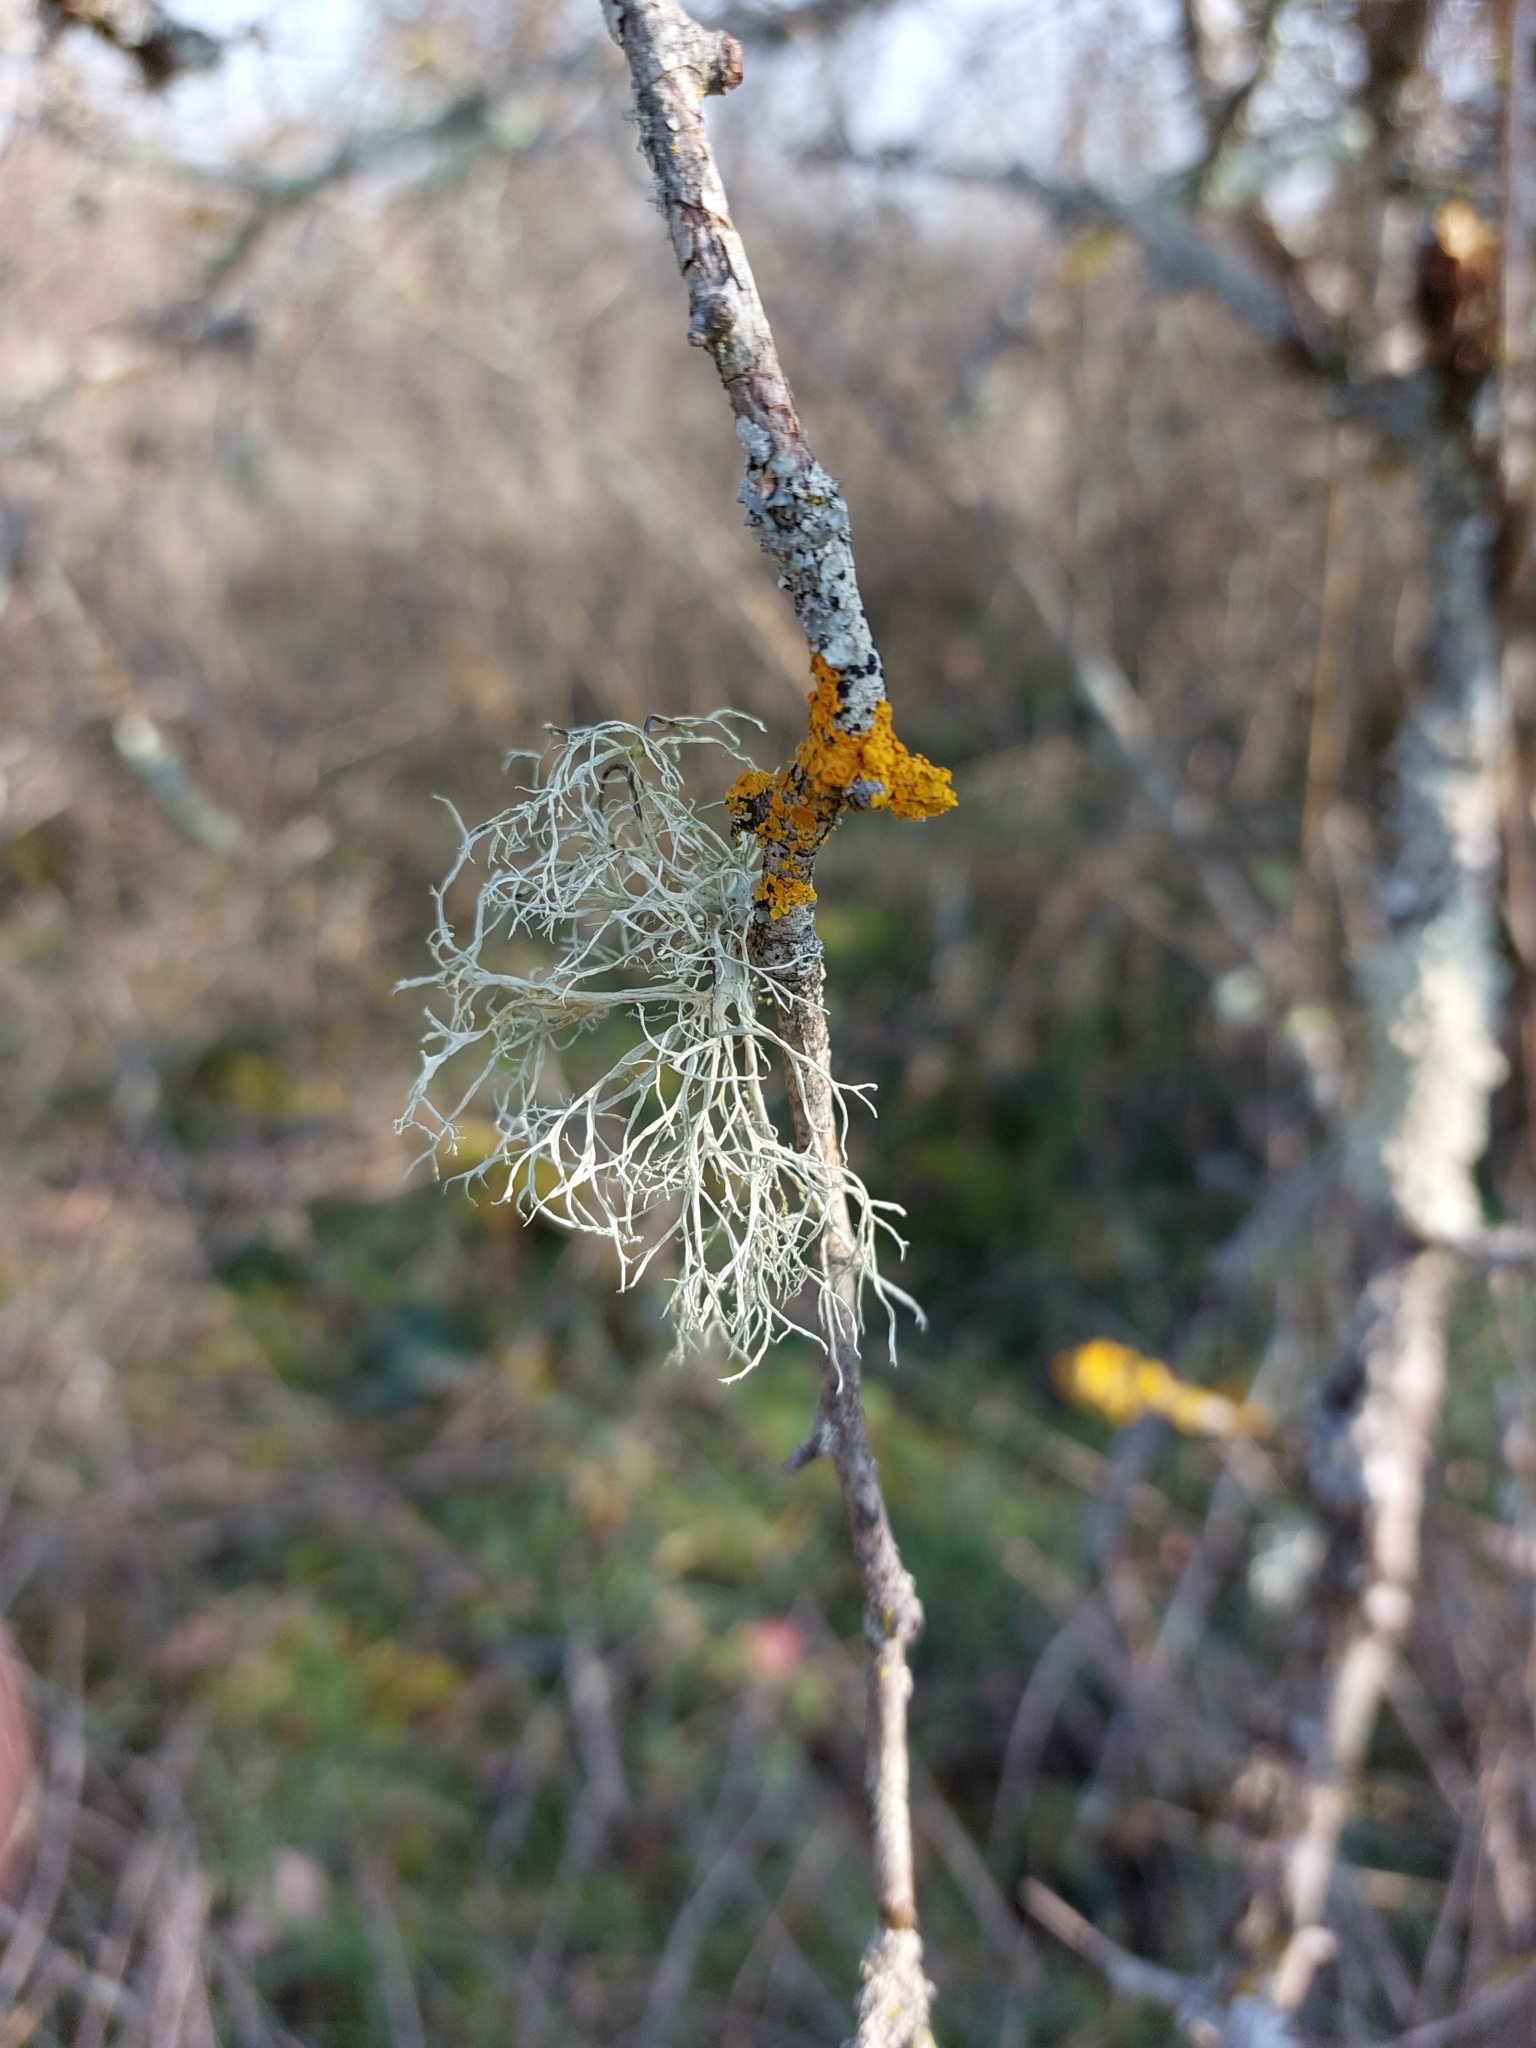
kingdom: Fungi
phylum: Ascomycota
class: Lecanoromycetes
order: Lecanorales
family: Ramalinaceae
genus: Ramalina
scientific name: Ramalina farinacea
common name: Farinose cartilage lichen
